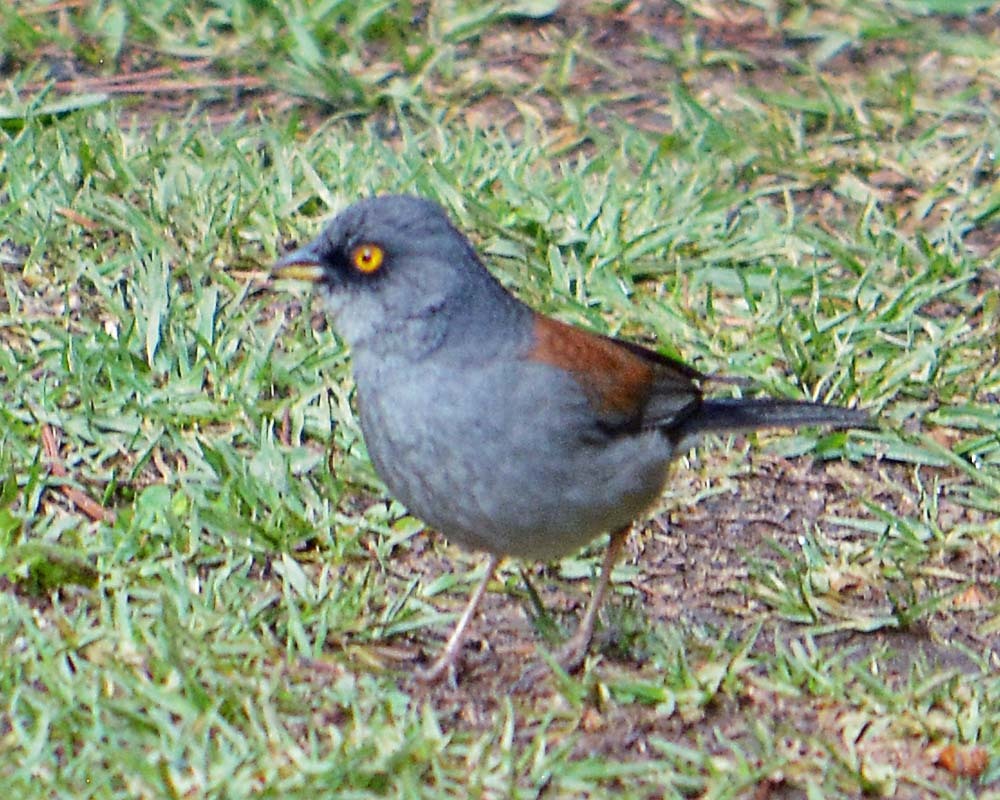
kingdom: Animalia
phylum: Chordata
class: Aves
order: Passeriformes
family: Passerellidae
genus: Junco
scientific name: Junco phaeonotus
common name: Yellow-eyed junco
